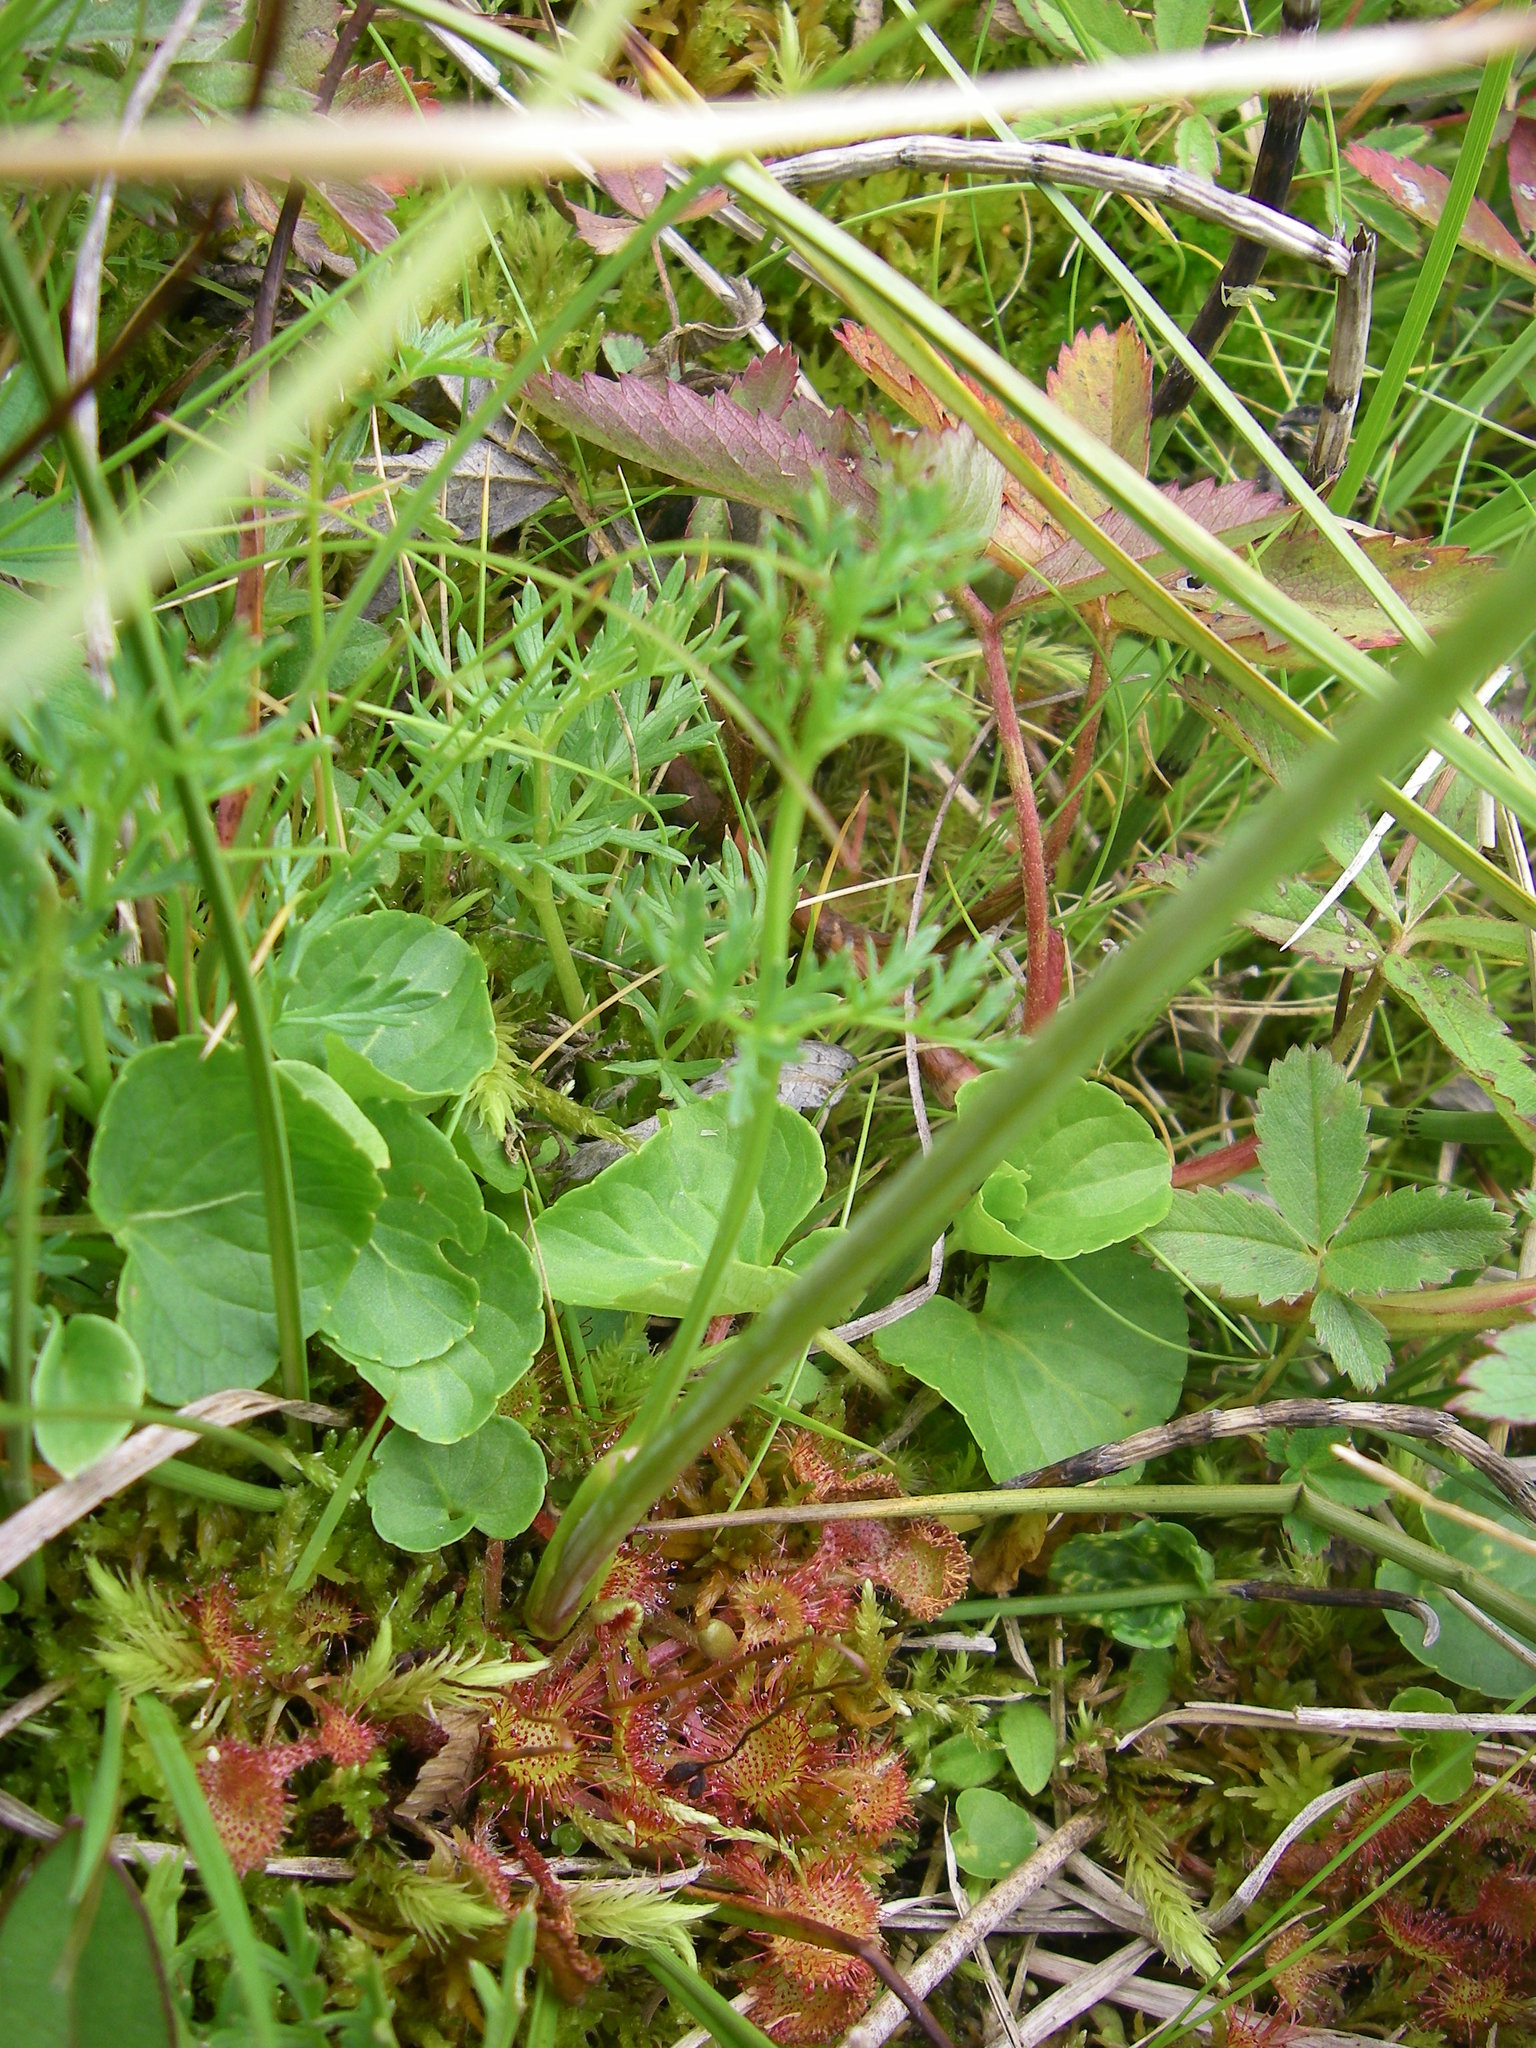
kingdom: Plantae
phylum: Tracheophyta
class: Magnoliopsida
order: Caryophyllales
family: Droseraceae
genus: Drosera
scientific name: Drosera rotundifolia
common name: Round-leaved sundew
